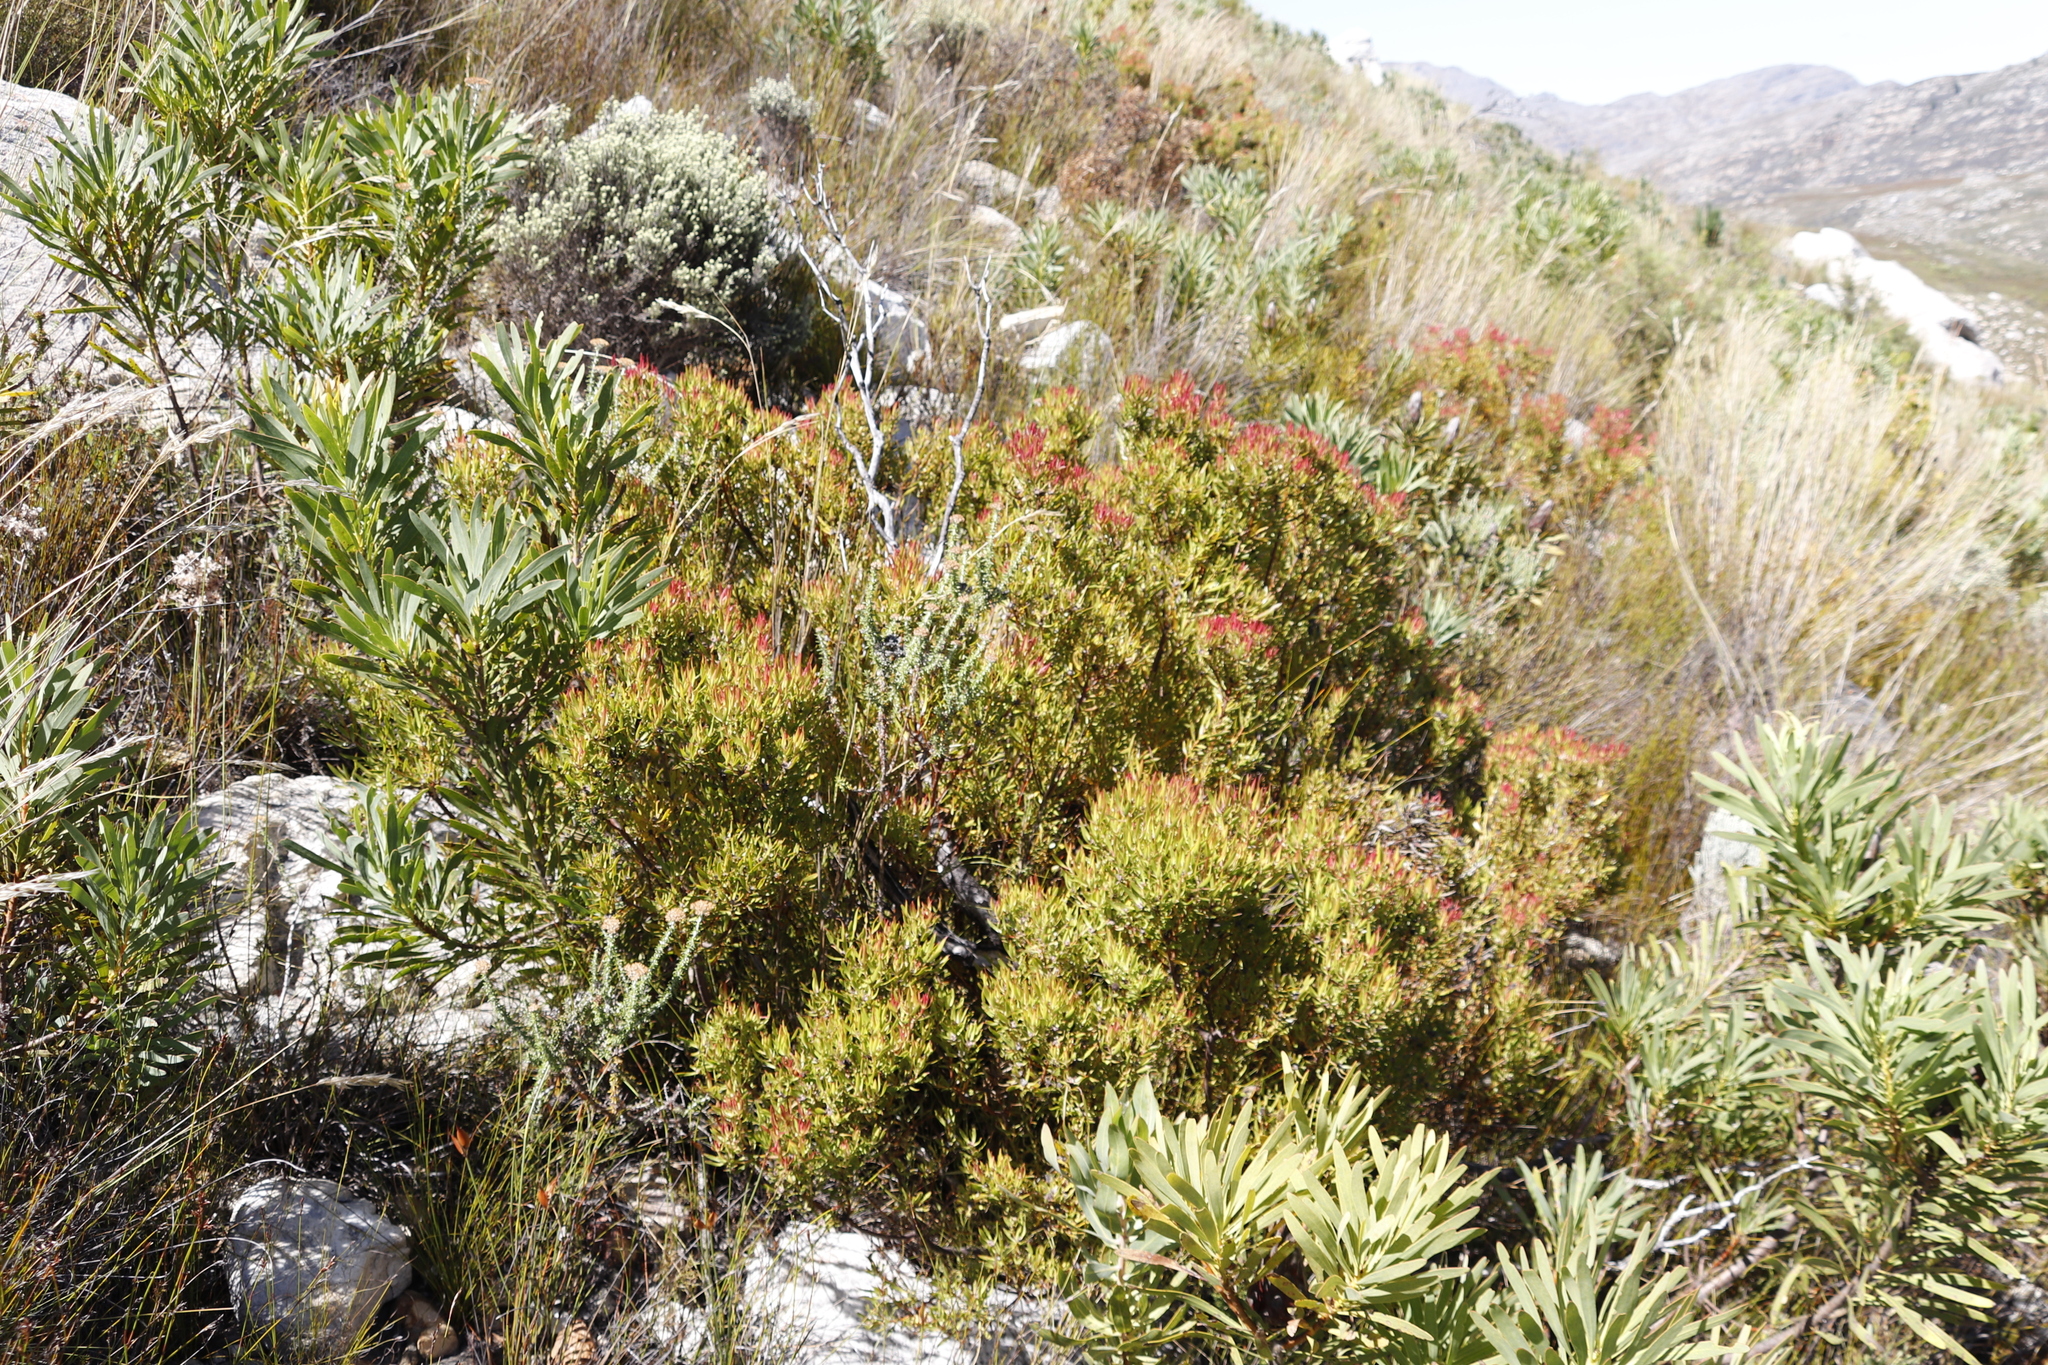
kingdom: Plantae
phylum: Tracheophyta
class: Magnoliopsida
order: Proteales
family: Proteaceae
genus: Leucadendron
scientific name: Leucadendron spissifolium
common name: Spear-leaf conebush
